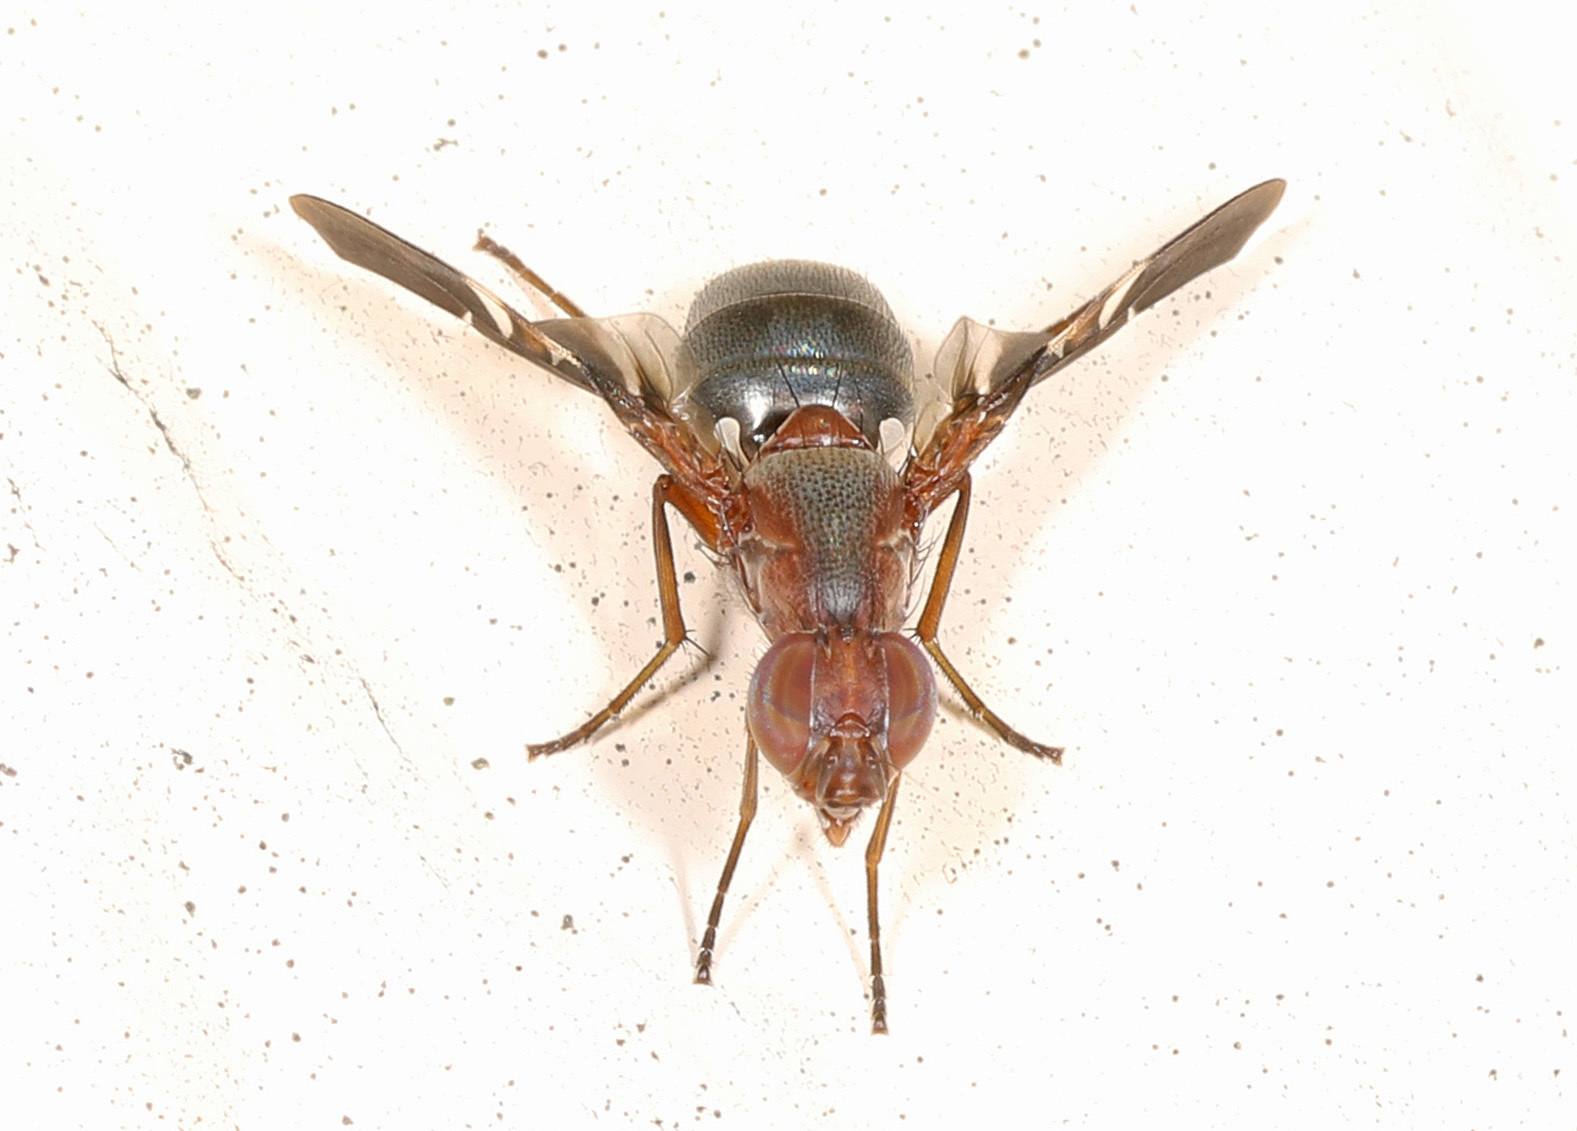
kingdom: Animalia
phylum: Arthropoda
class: Insecta
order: Diptera
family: Ulidiidae
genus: Delphinia
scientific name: Delphinia picta
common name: Common picture-winged fly
